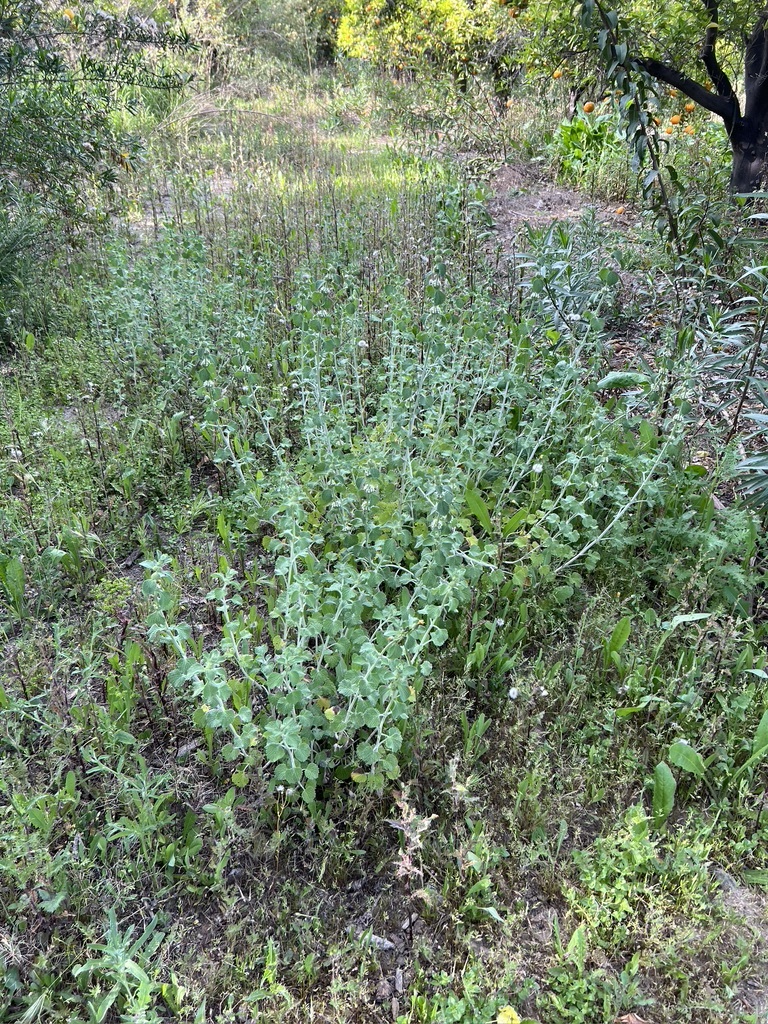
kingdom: Plantae
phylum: Tracheophyta
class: Magnoliopsida
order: Lamiales
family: Lamiaceae
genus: Marrubium
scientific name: Marrubium vulgare
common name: Horehound
